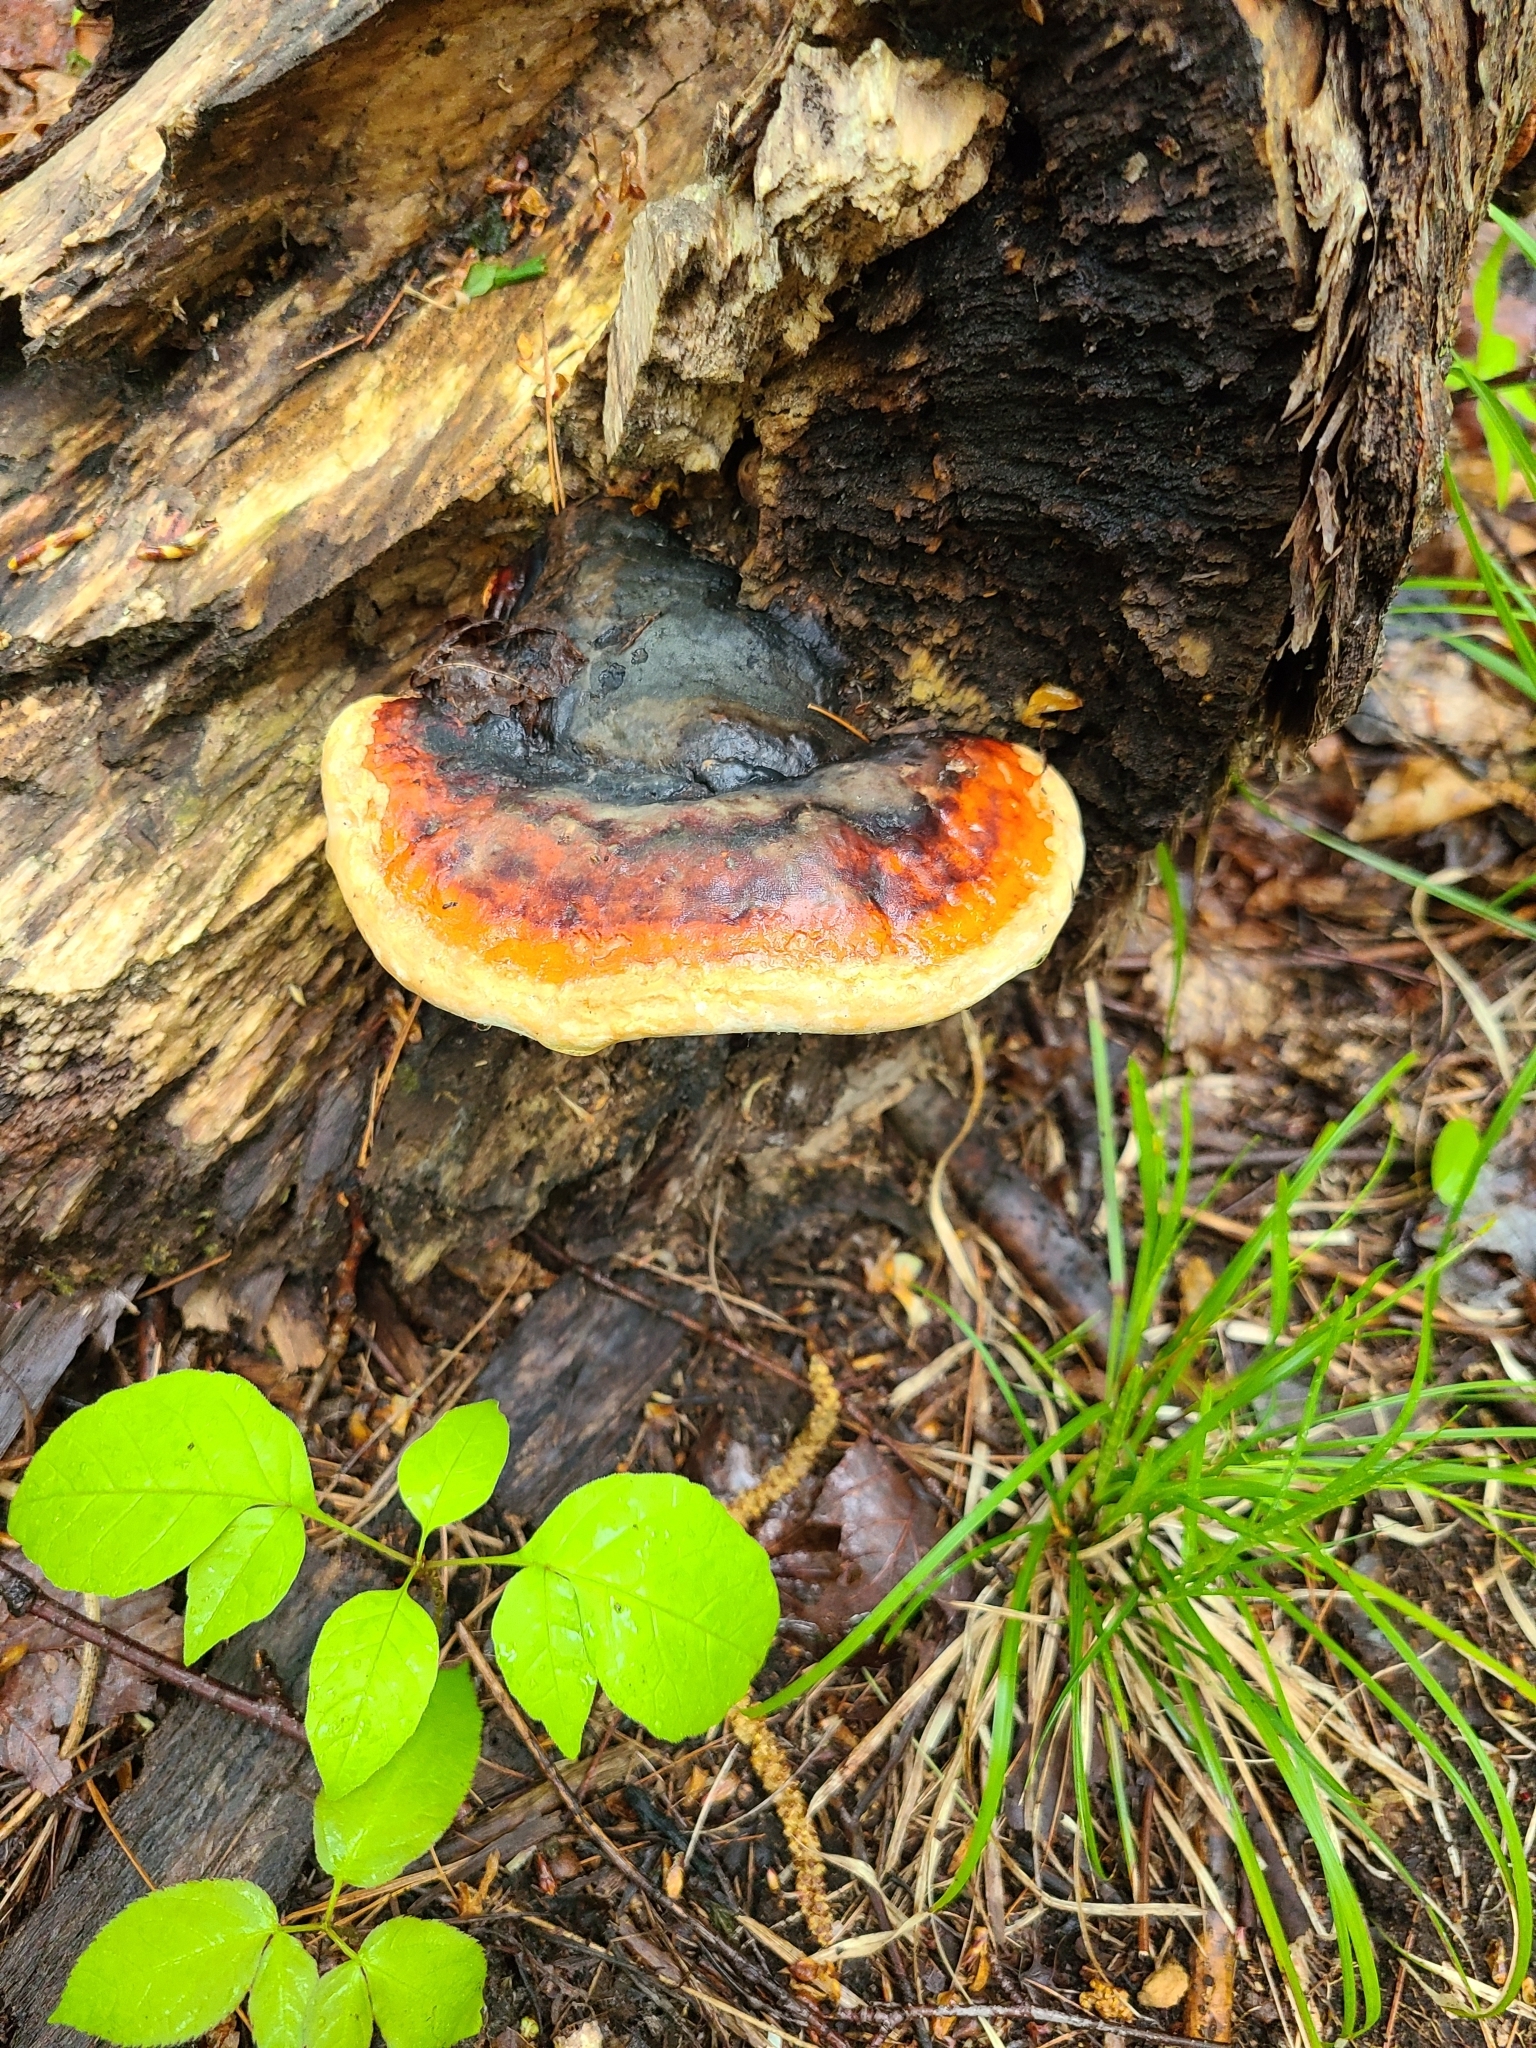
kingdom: Fungi
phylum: Basidiomycota
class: Agaricomycetes
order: Polyporales
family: Fomitopsidaceae
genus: Fomitopsis
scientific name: Fomitopsis mounceae
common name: Northern red belt
